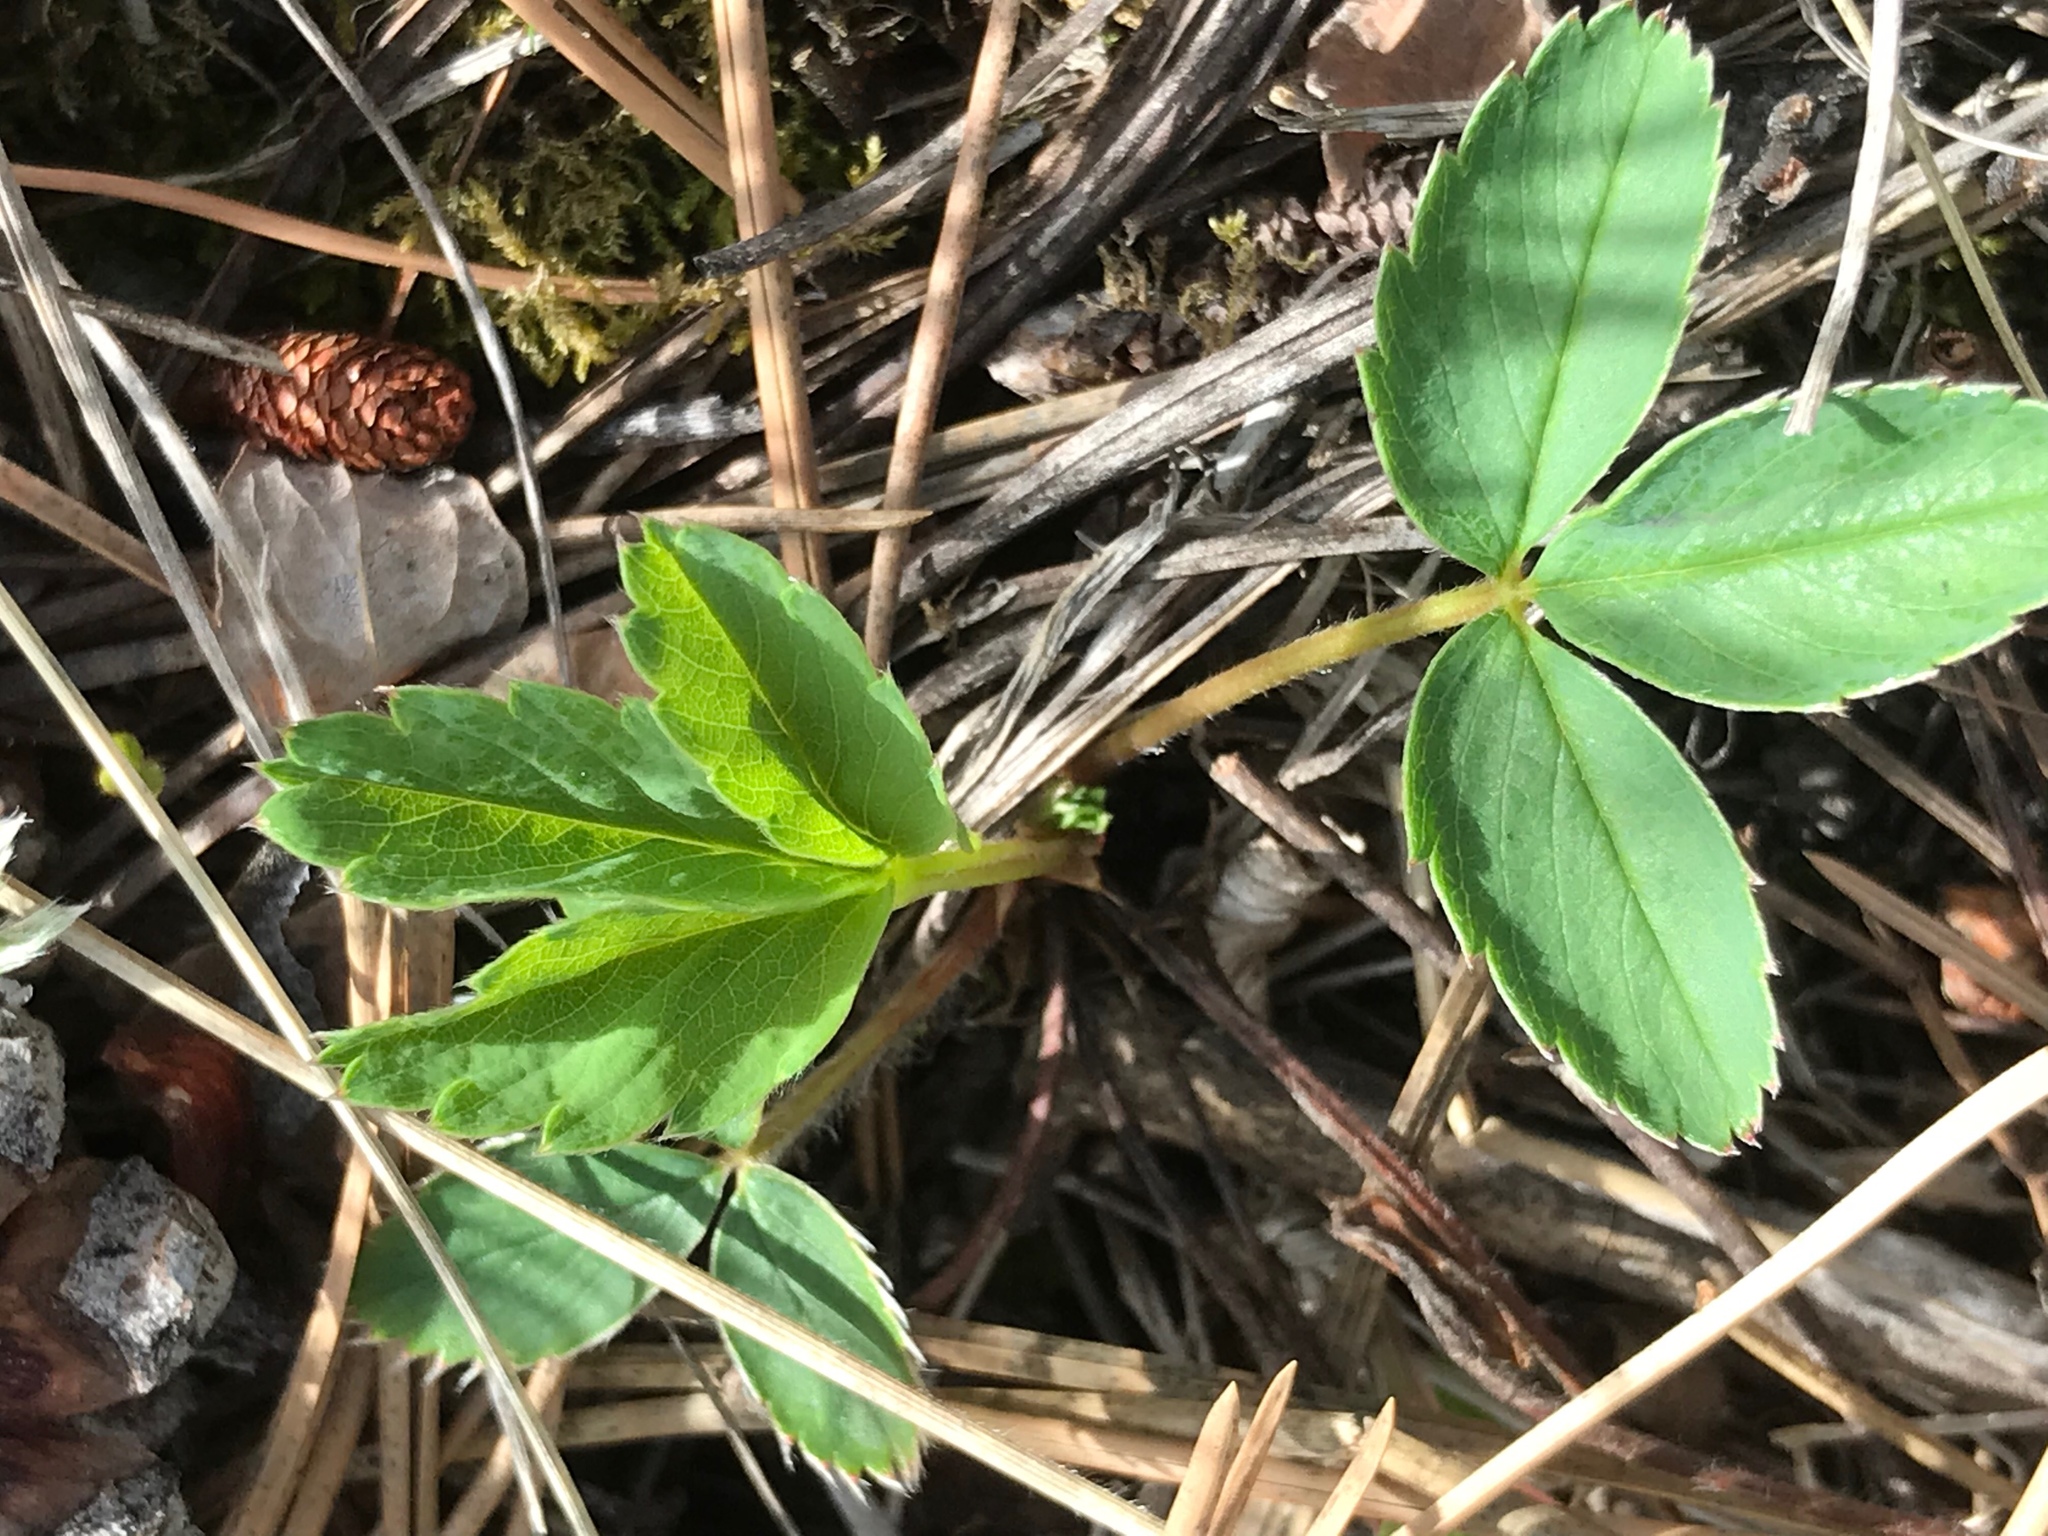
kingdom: Plantae
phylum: Tracheophyta
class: Magnoliopsida
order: Rosales
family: Rosaceae
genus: Fragaria
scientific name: Fragaria vesca
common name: Wild strawberry
